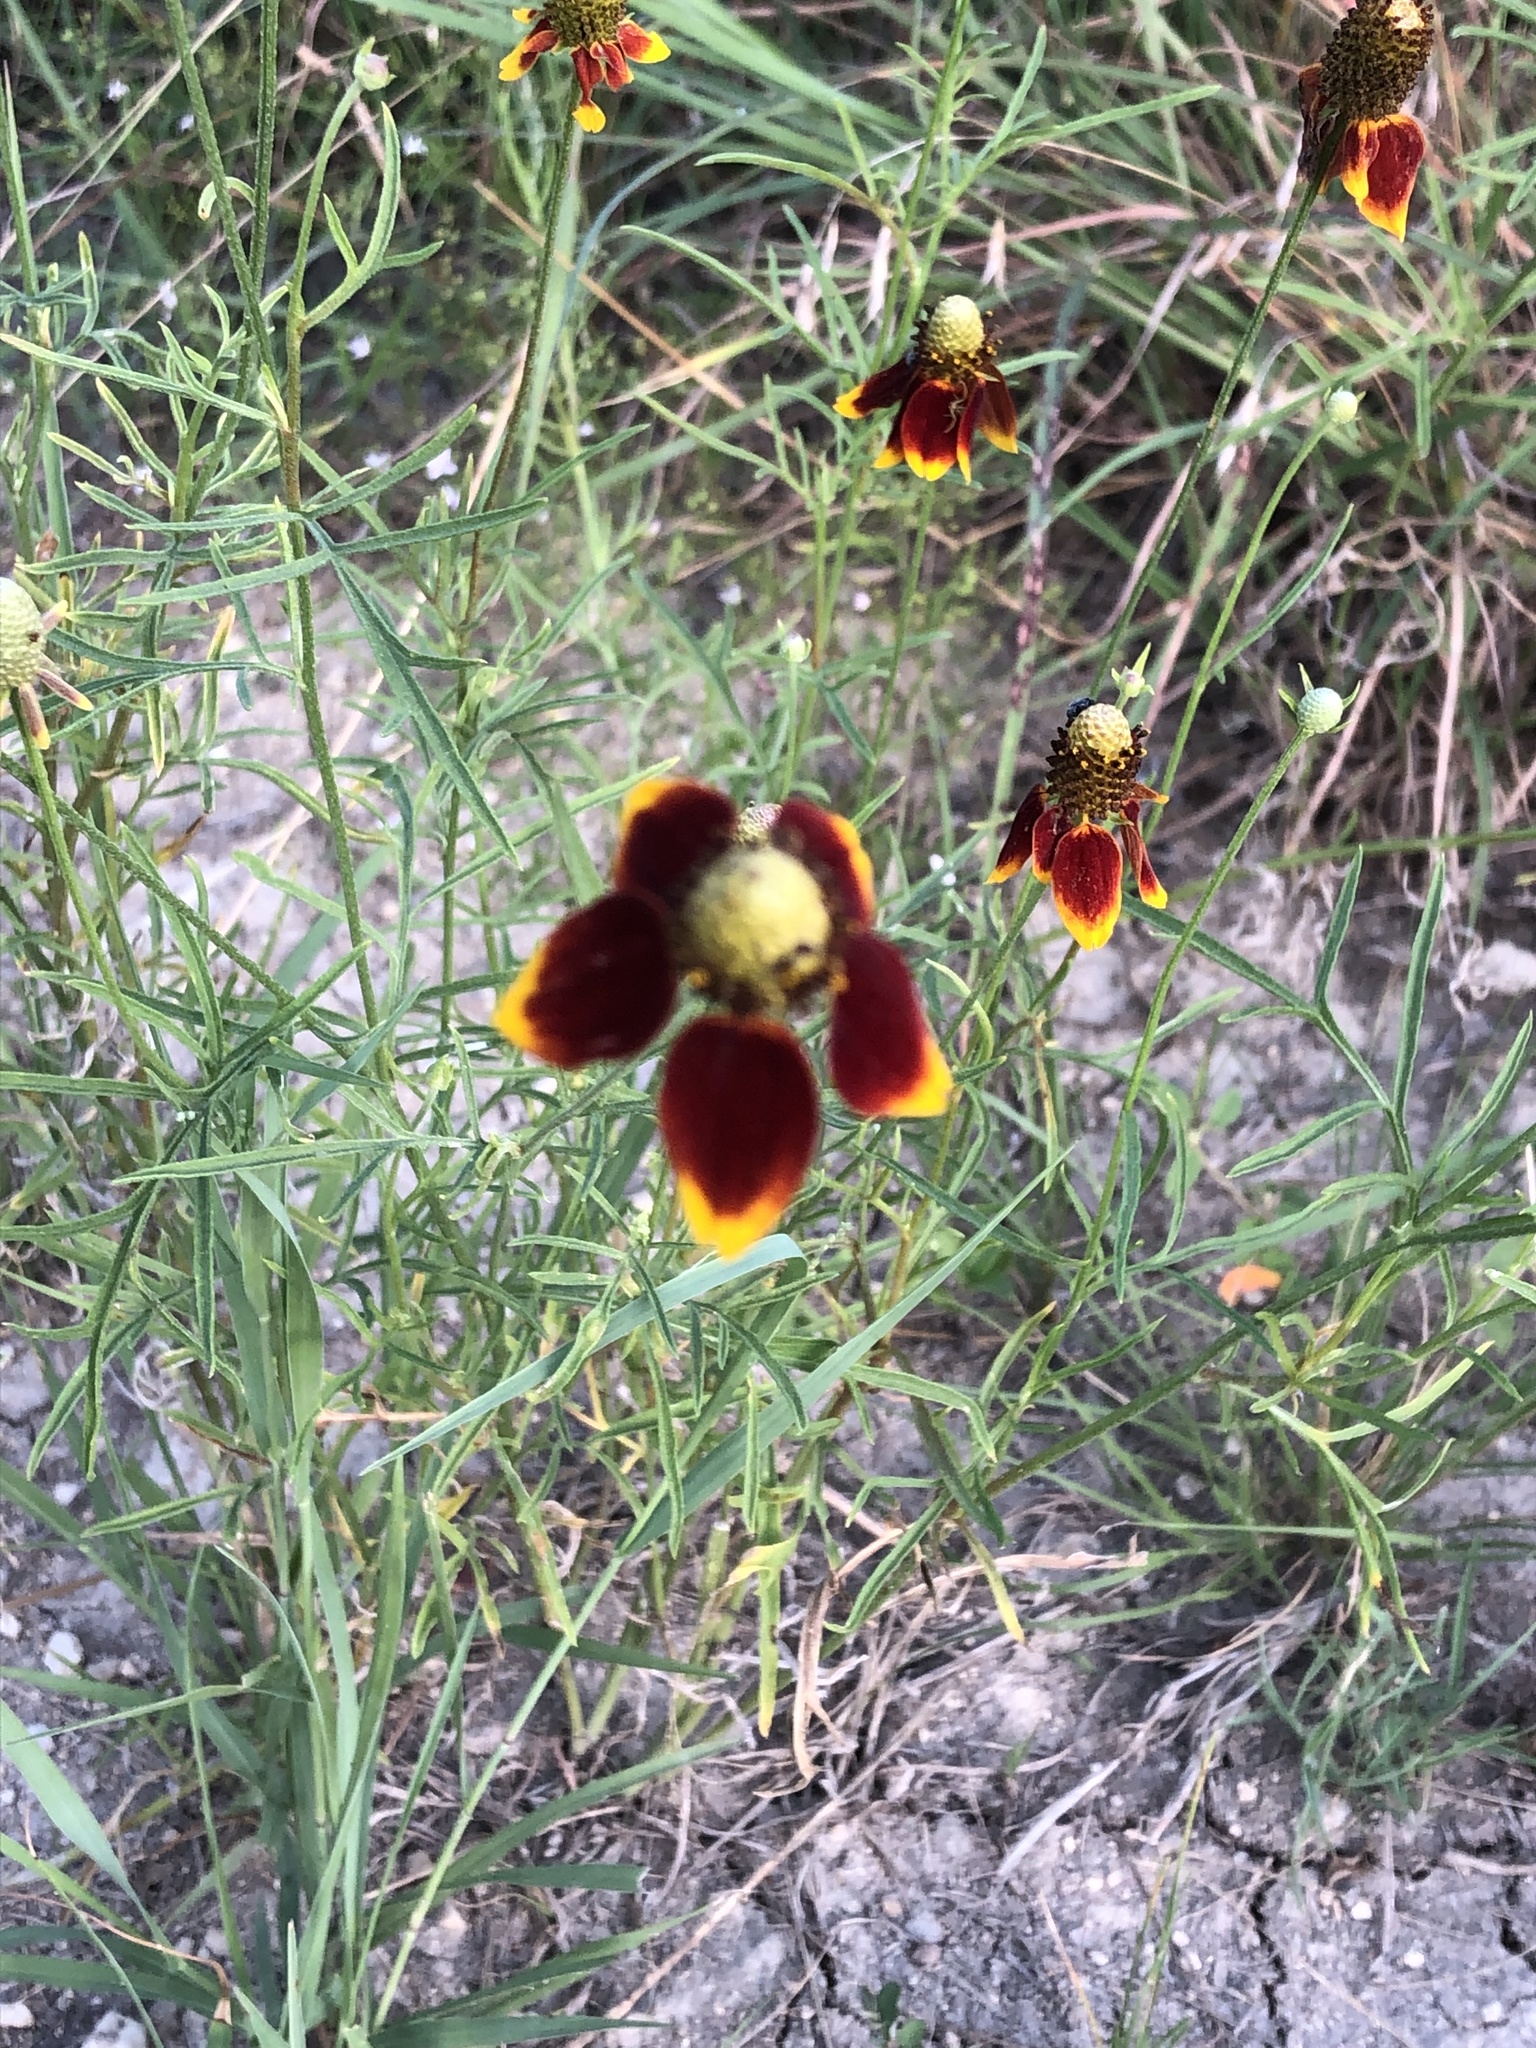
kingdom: Plantae
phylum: Tracheophyta
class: Magnoliopsida
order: Asterales
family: Asteraceae
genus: Ratibida
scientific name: Ratibida columnifera
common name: Prairie coneflower
